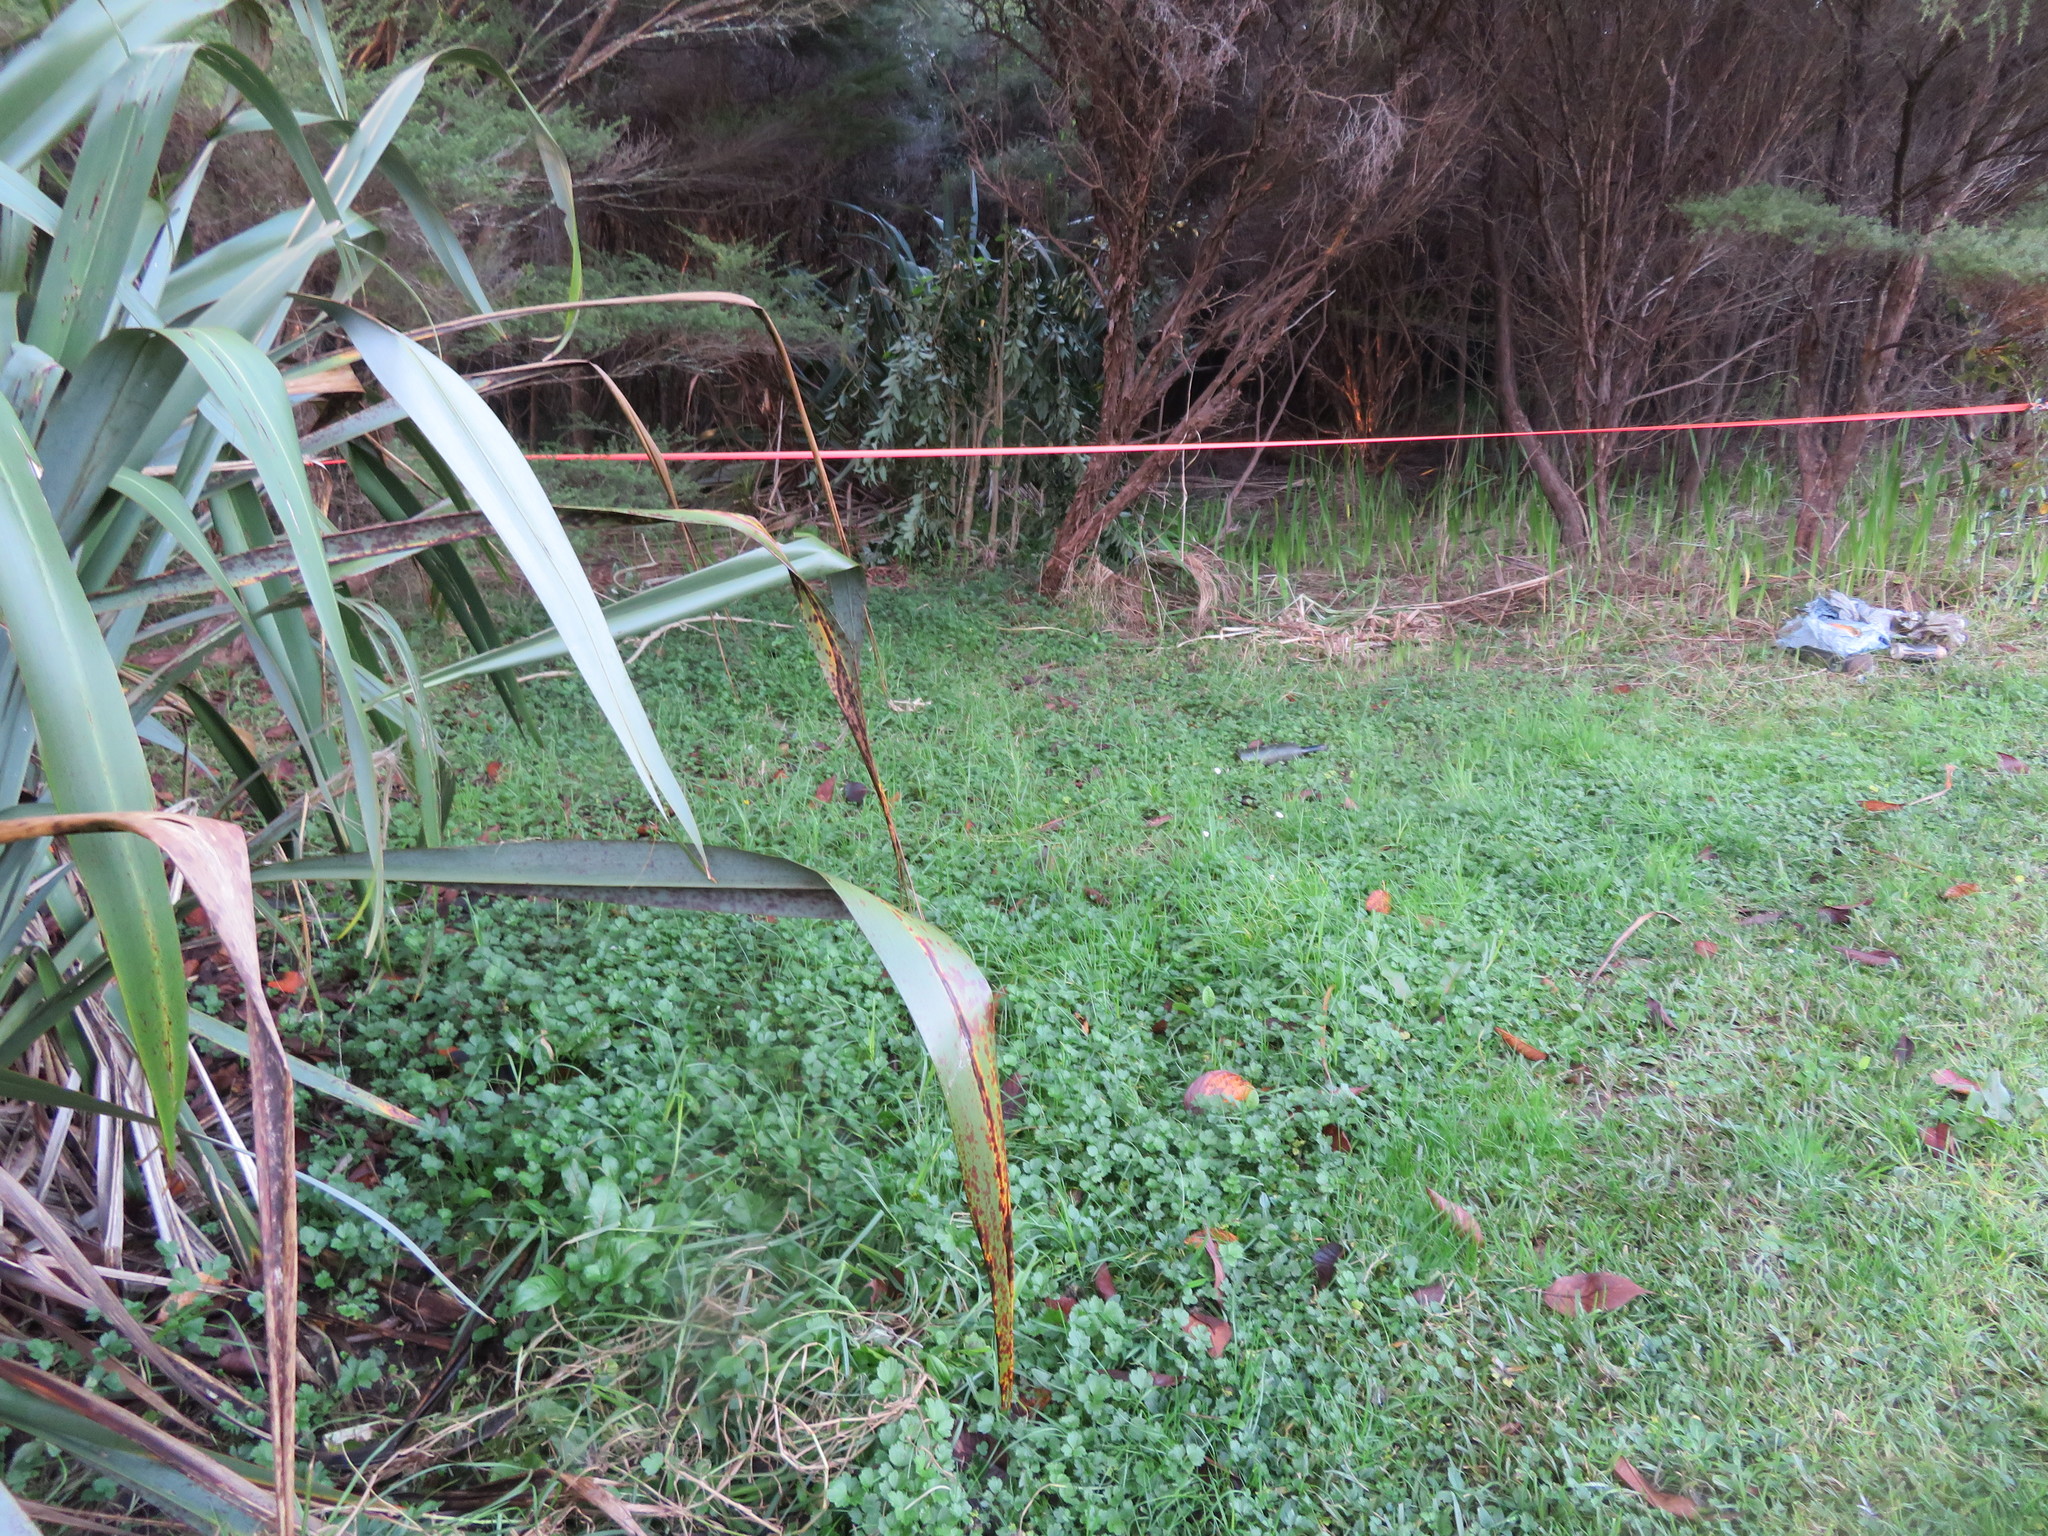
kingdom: Plantae
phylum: Tracheophyta
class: Magnoliopsida
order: Lamiales
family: Oleaceae
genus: Ligustrum
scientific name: Ligustrum lucidum
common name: Glossy privet
